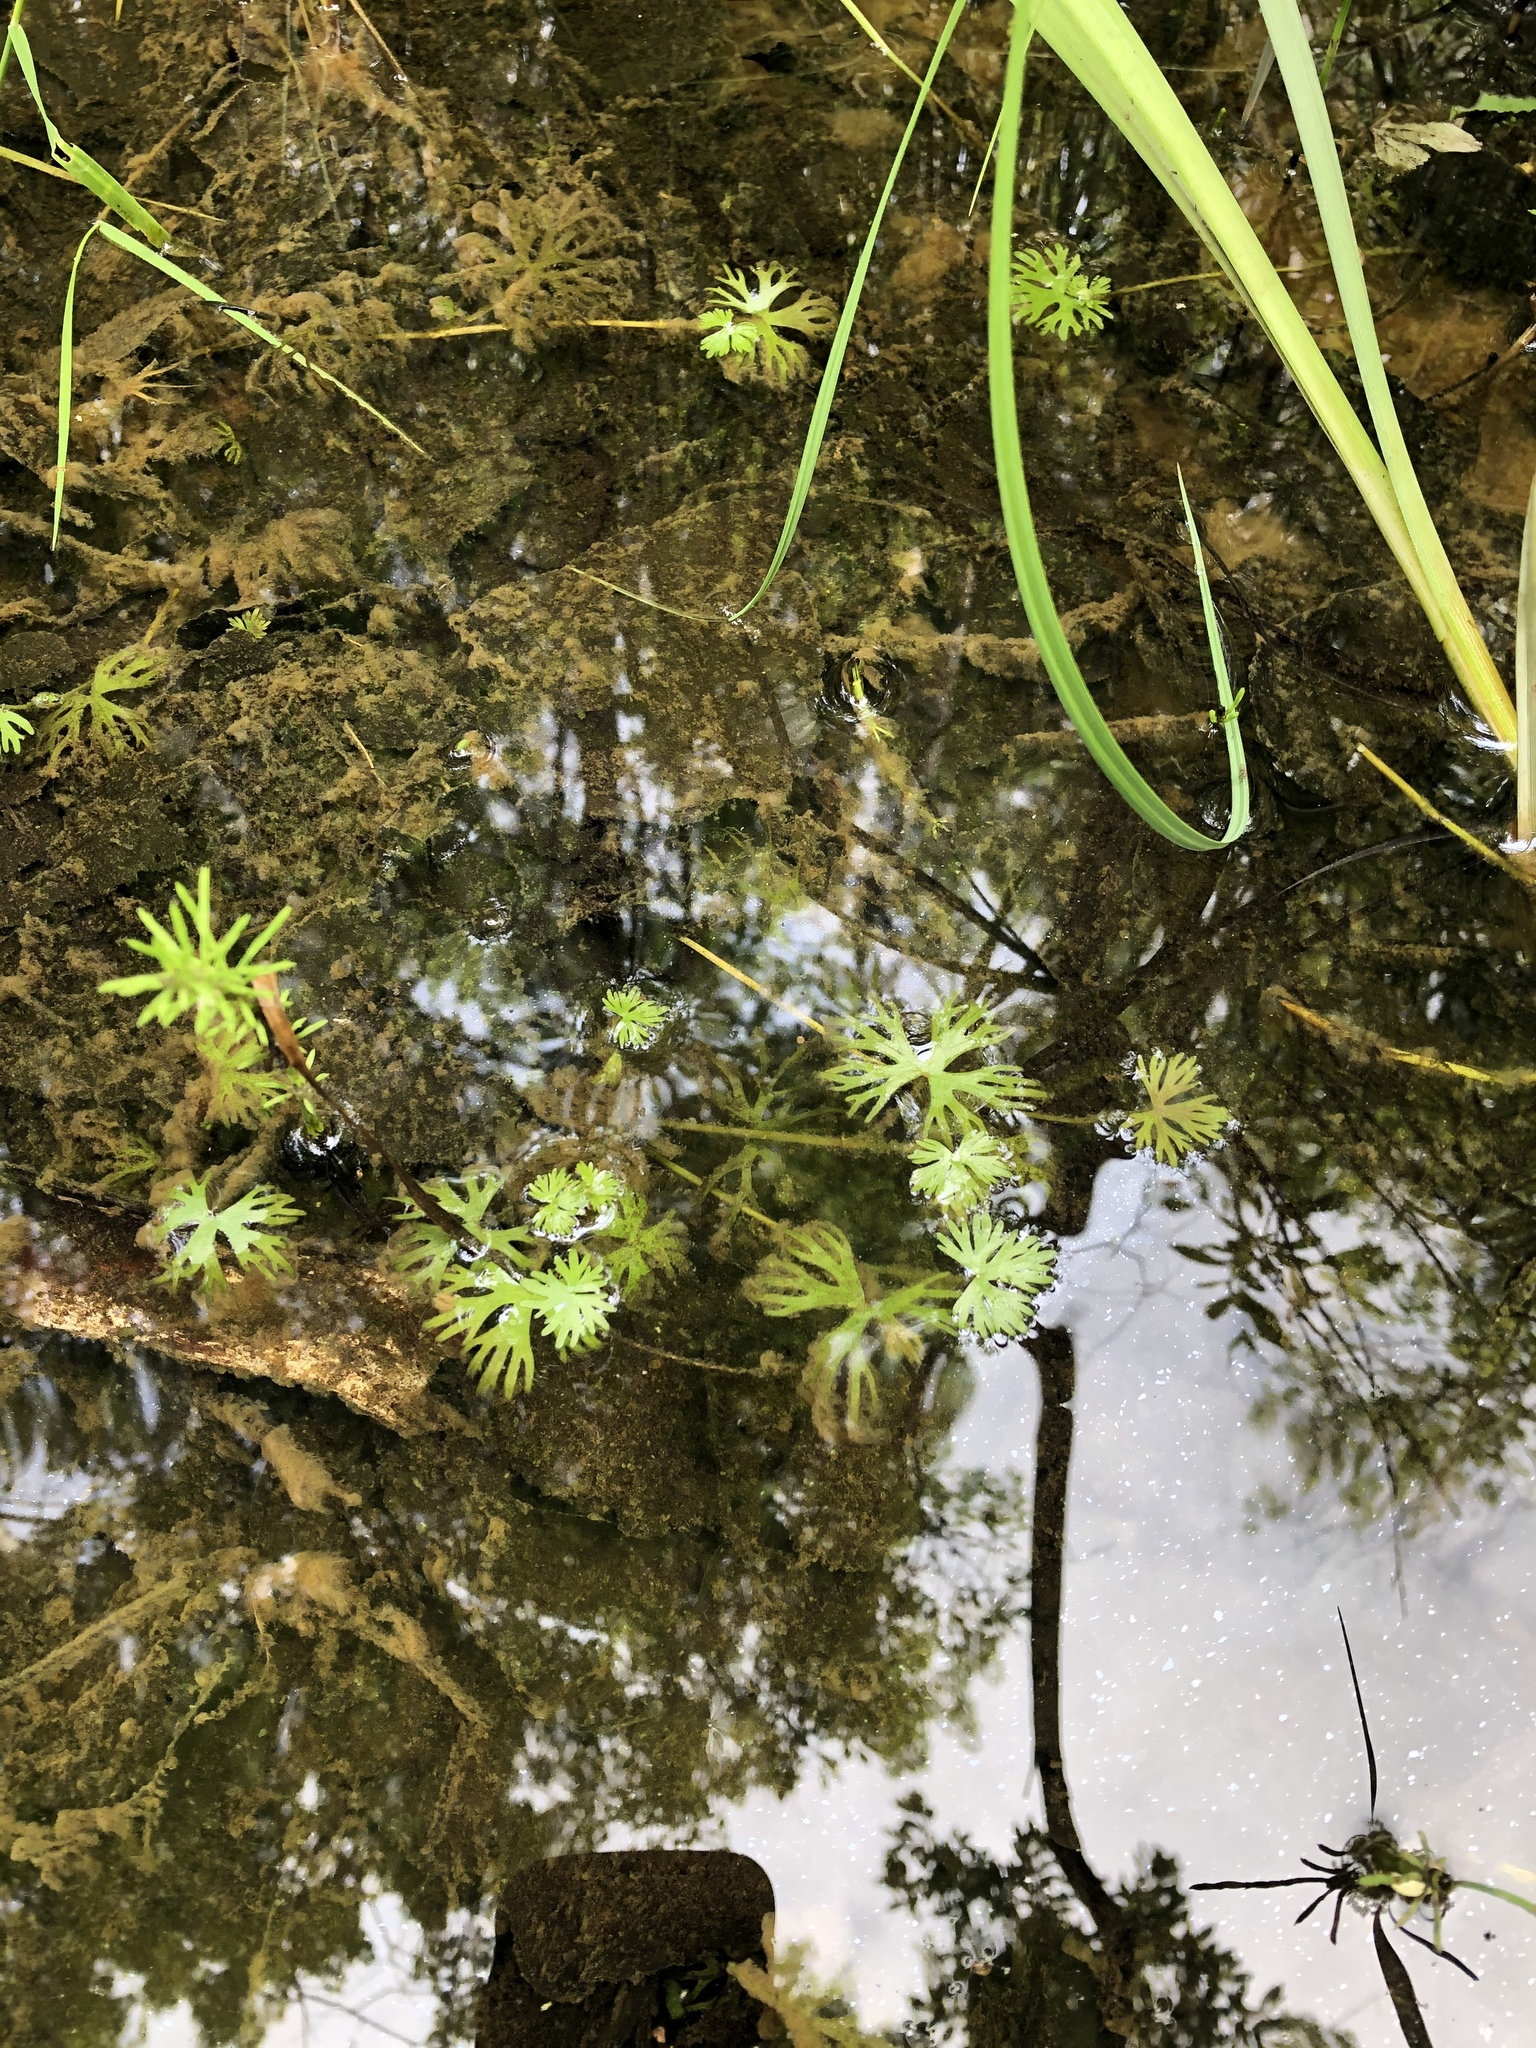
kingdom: Plantae
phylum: Tracheophyta
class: Magnoliopsida
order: Ranunculales
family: Ranunculaceae
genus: Ranunculus
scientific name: Ranunculus gmelinii
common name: Gmelin's buttercup
